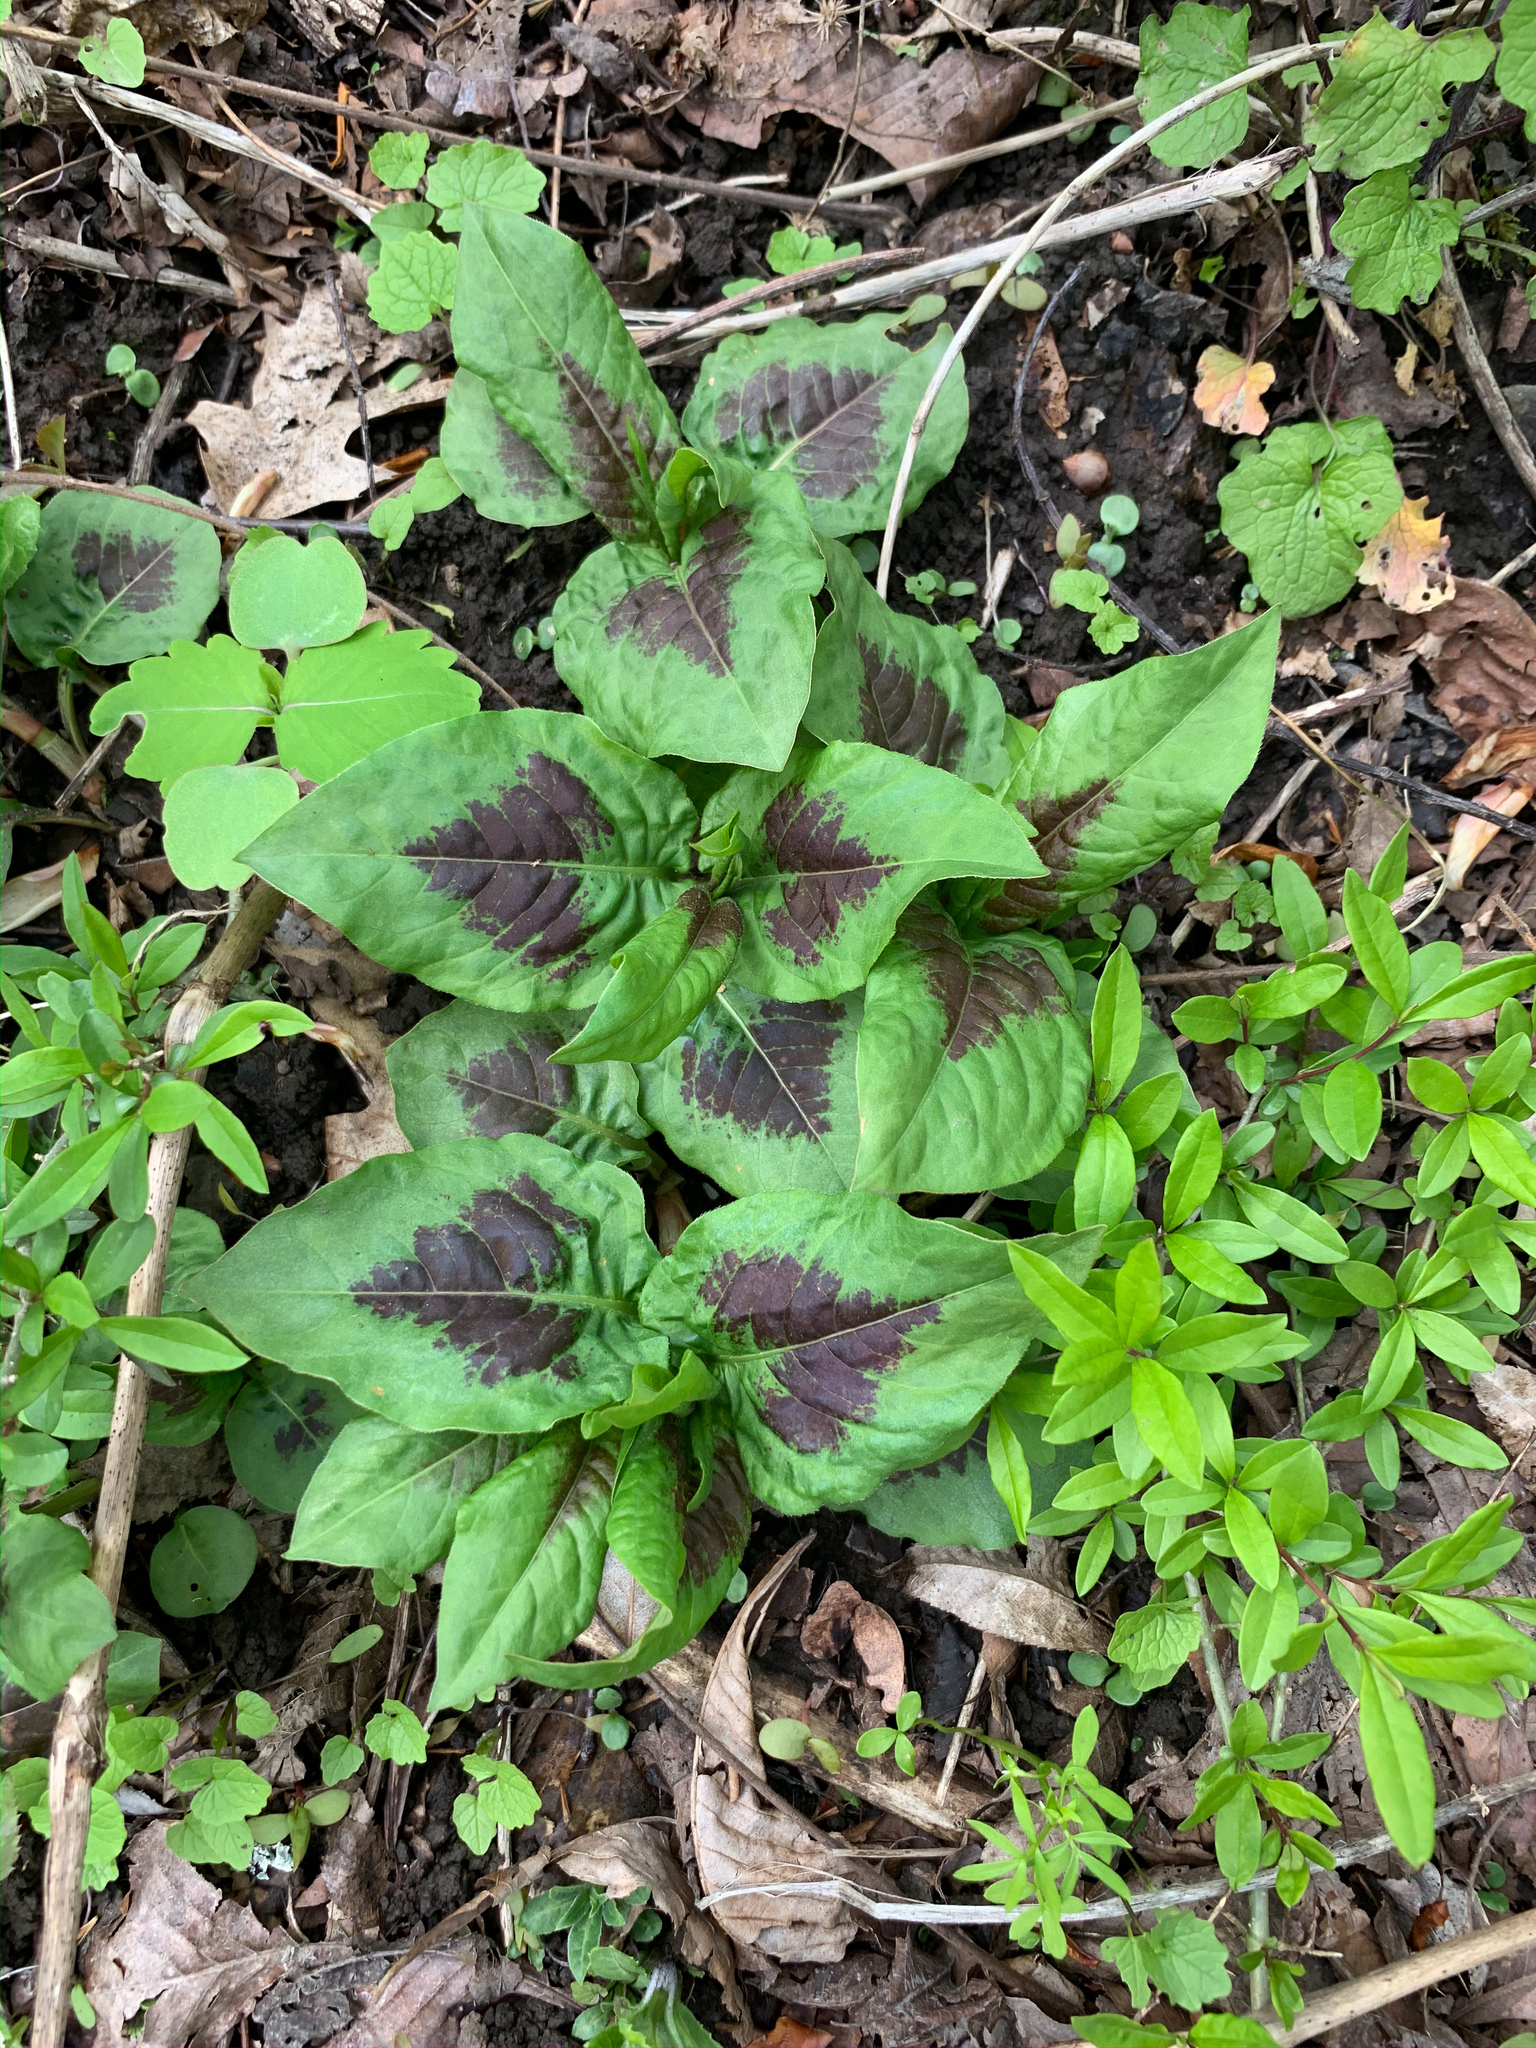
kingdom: Plantae
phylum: Tracheophyta
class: Magnoliopsida
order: Caryophyllales
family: Polygonaceae
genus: Persicaria
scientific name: Persicaria virginiana
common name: Jumpseed
